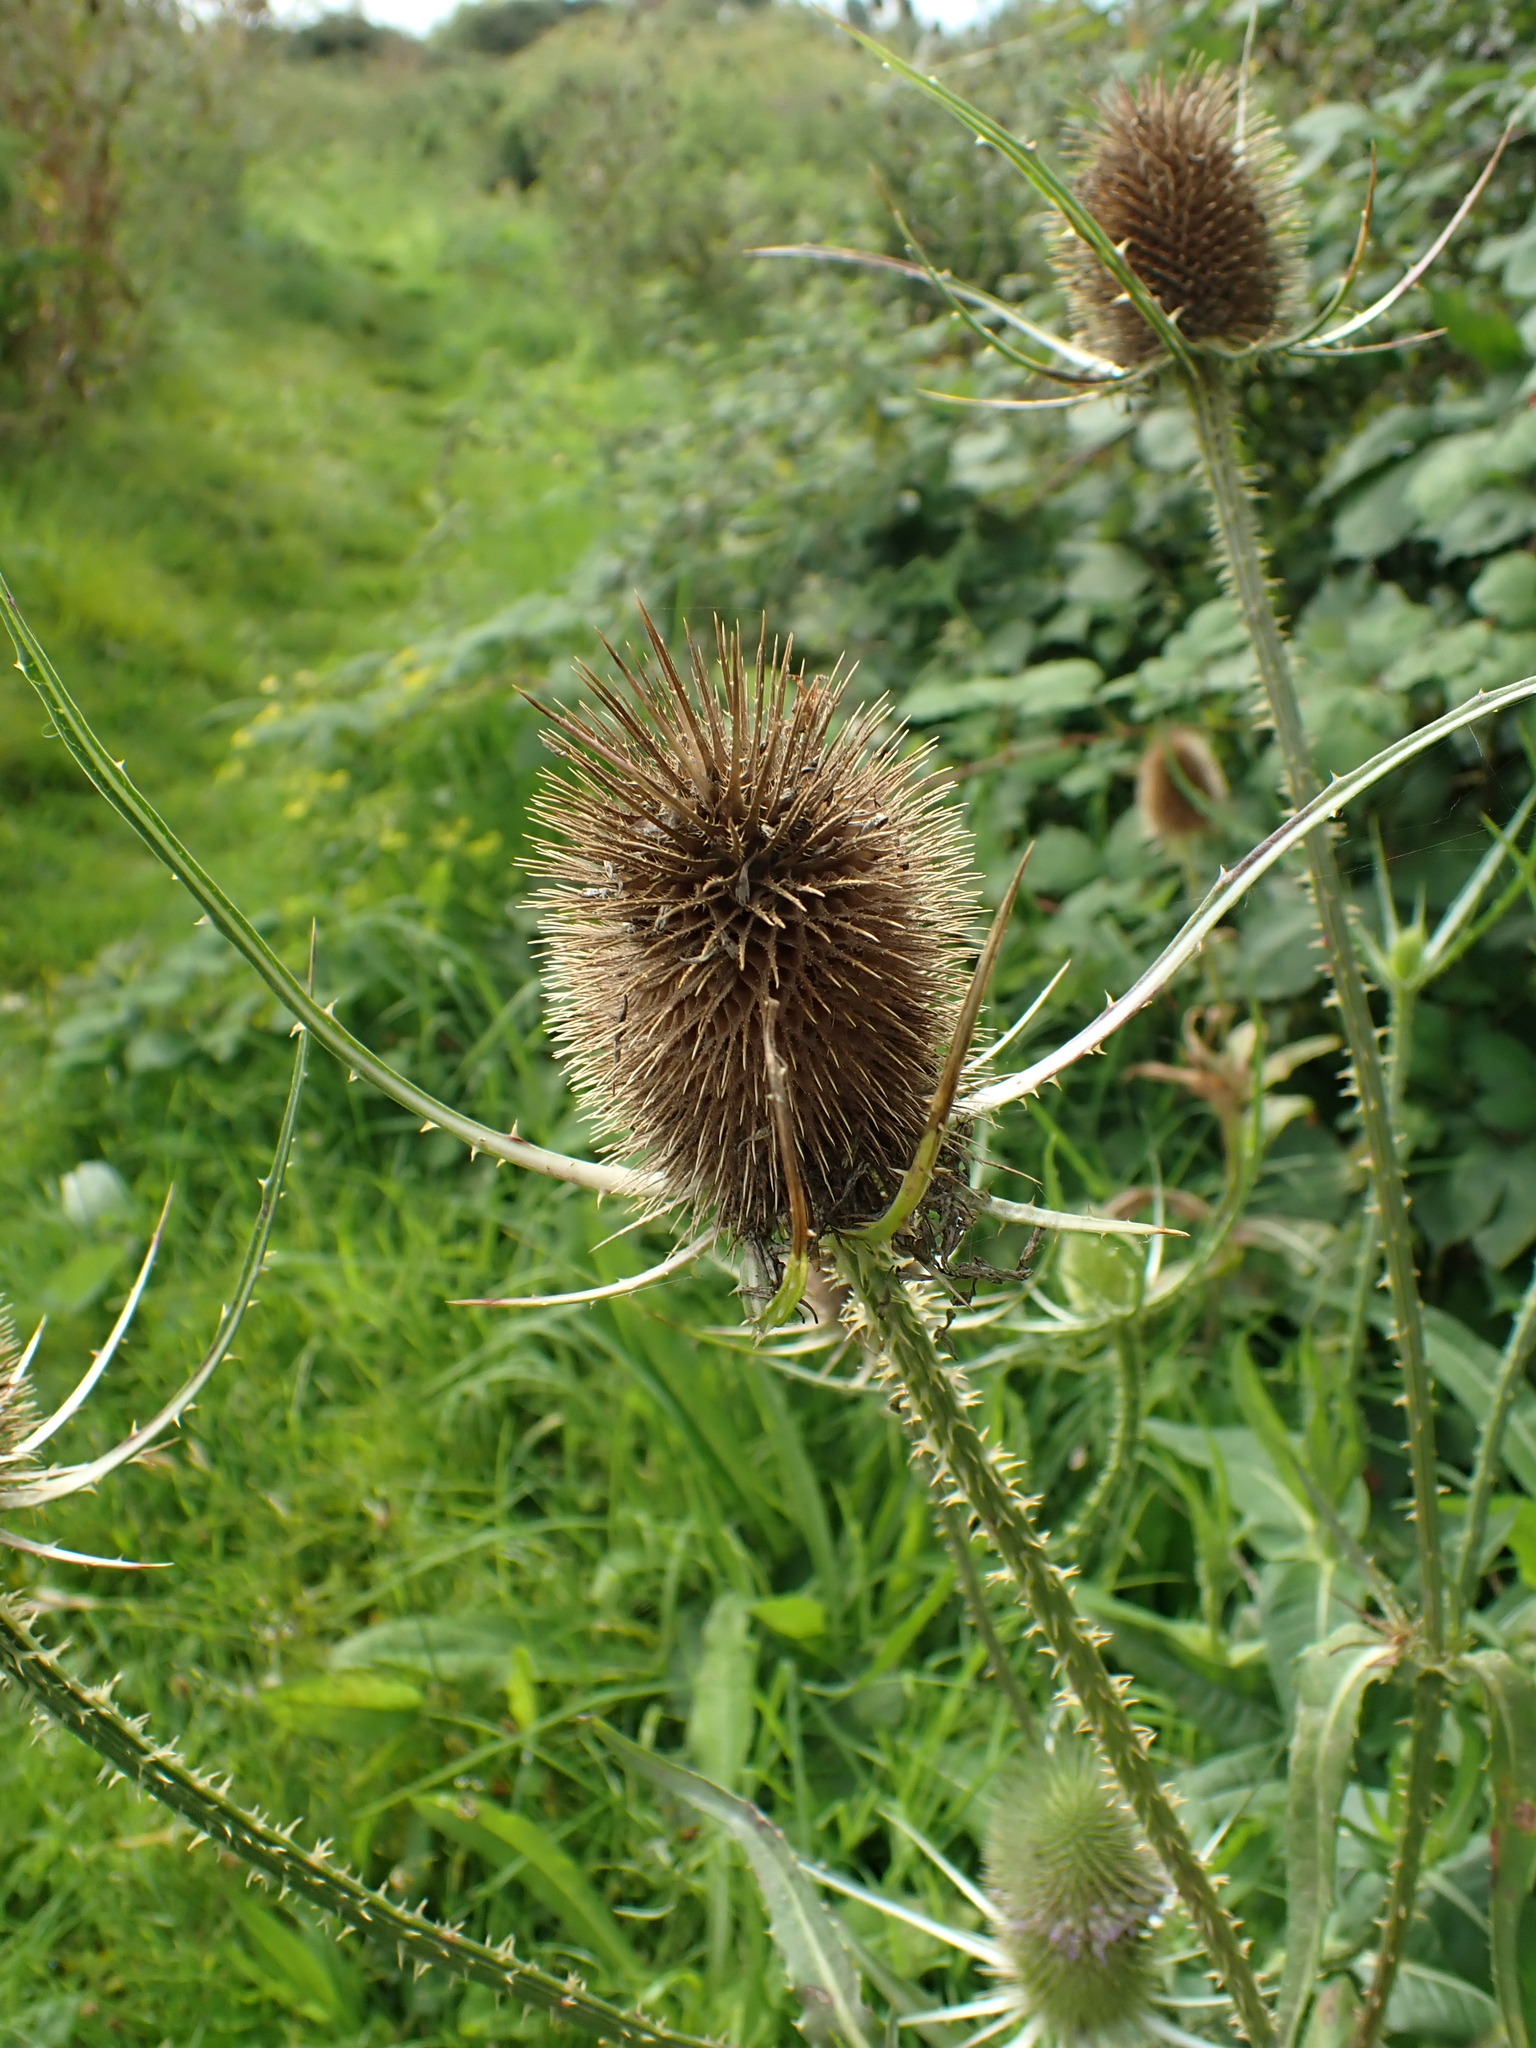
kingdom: Plantae
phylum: Tracheophyta
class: Magnoliopsida
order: Dipsacales
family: Caprifoliaceae
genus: Dipsacus
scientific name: Dipsacus fullonum
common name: Teasel
